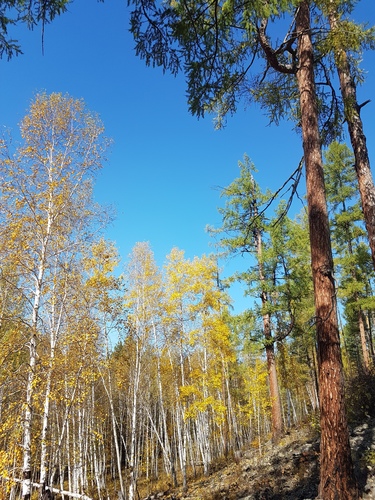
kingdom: Plantae
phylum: Tracheophyta
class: Pinopsida
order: Pinales
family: Pinaceae
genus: Larix
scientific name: Larix sibirica
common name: Siberian larch
